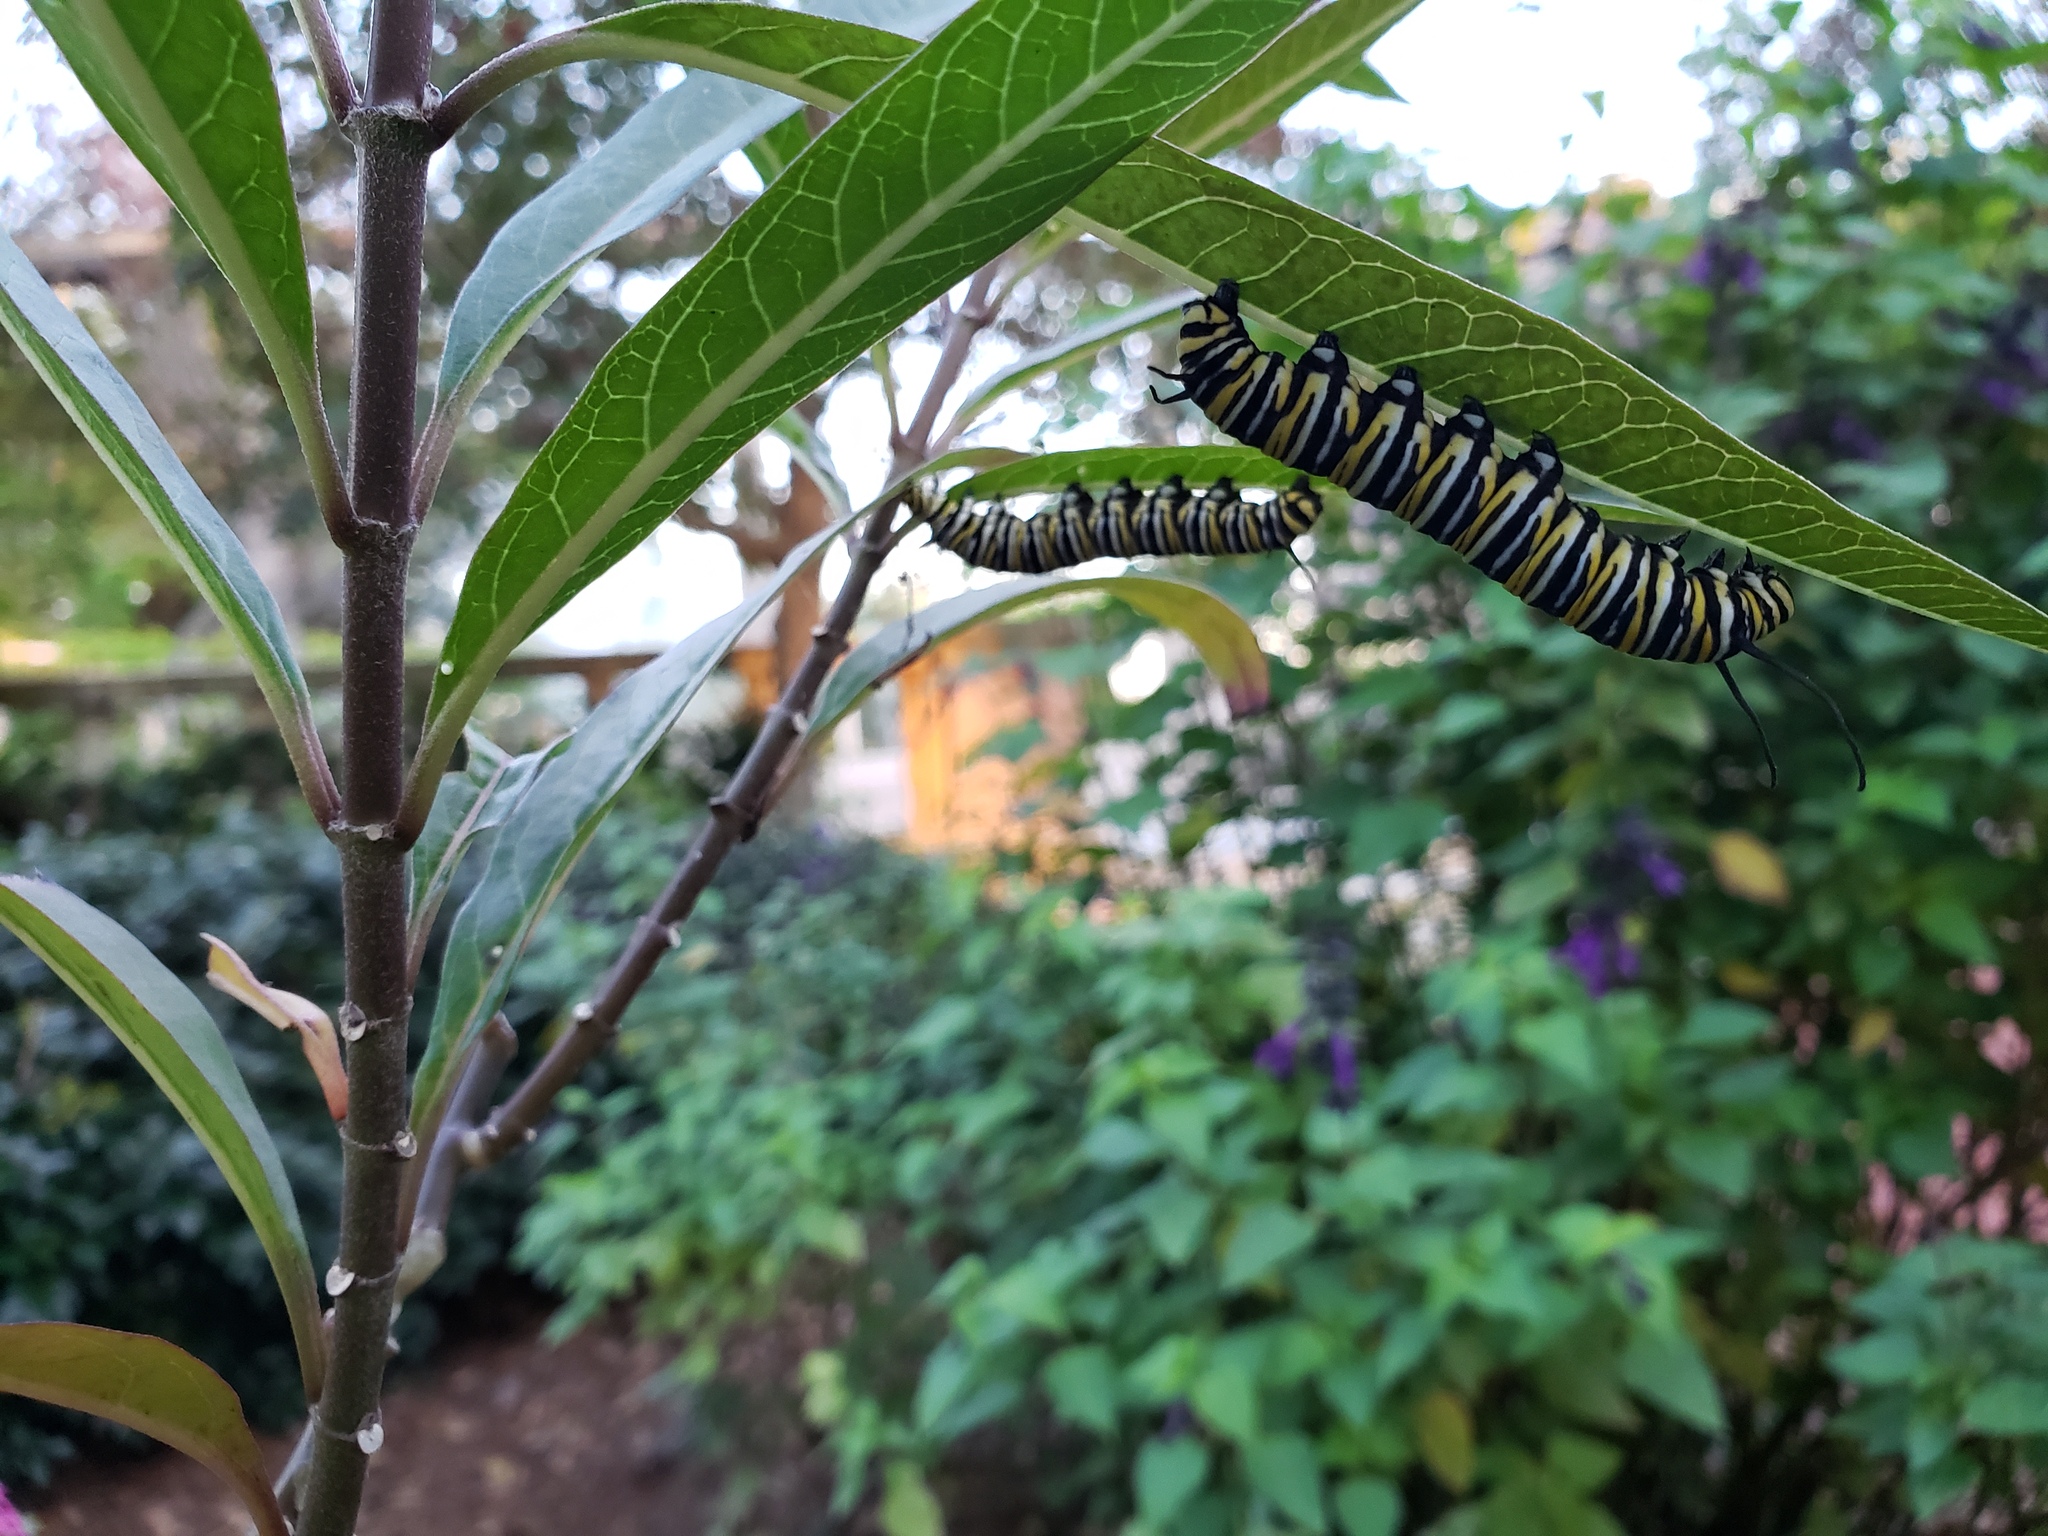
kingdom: Animalia
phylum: Arthropoda
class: Insecta
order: Lepidoptera
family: Nymphalidae
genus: Danaus
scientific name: Danaus plexippus
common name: Monarch
